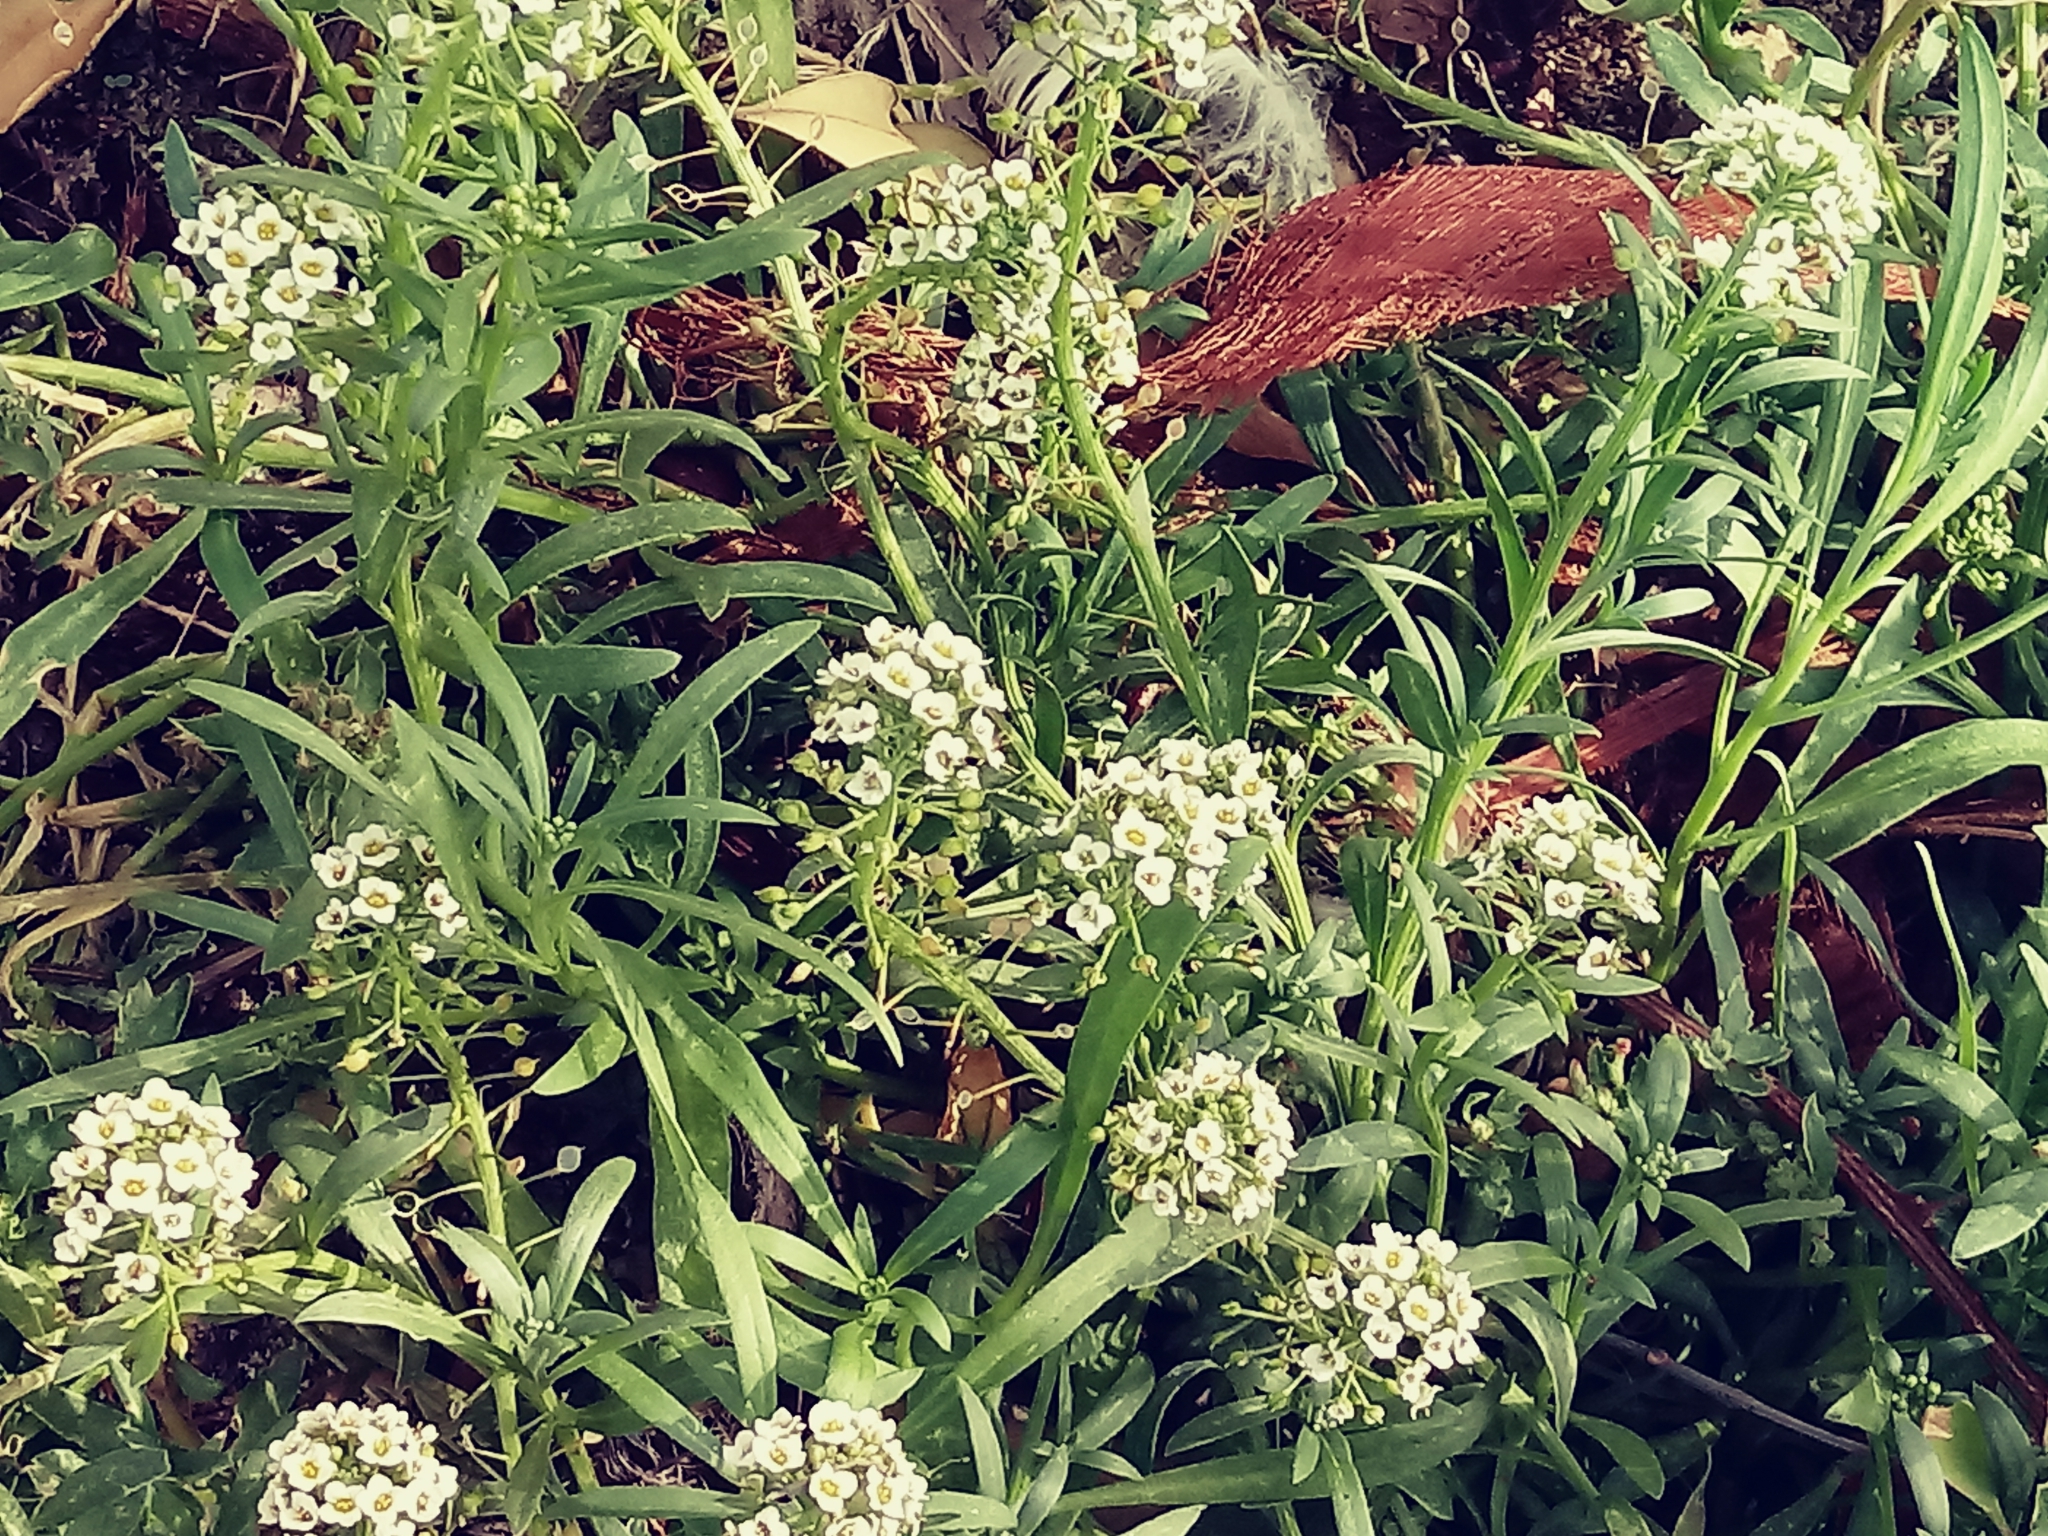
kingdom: Plantae
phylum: Tracheophyta
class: Magnoliopsida
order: Brassicales
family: Brassicaceae
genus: Lobularia
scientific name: Lobularia maritima
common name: Sweet alison
